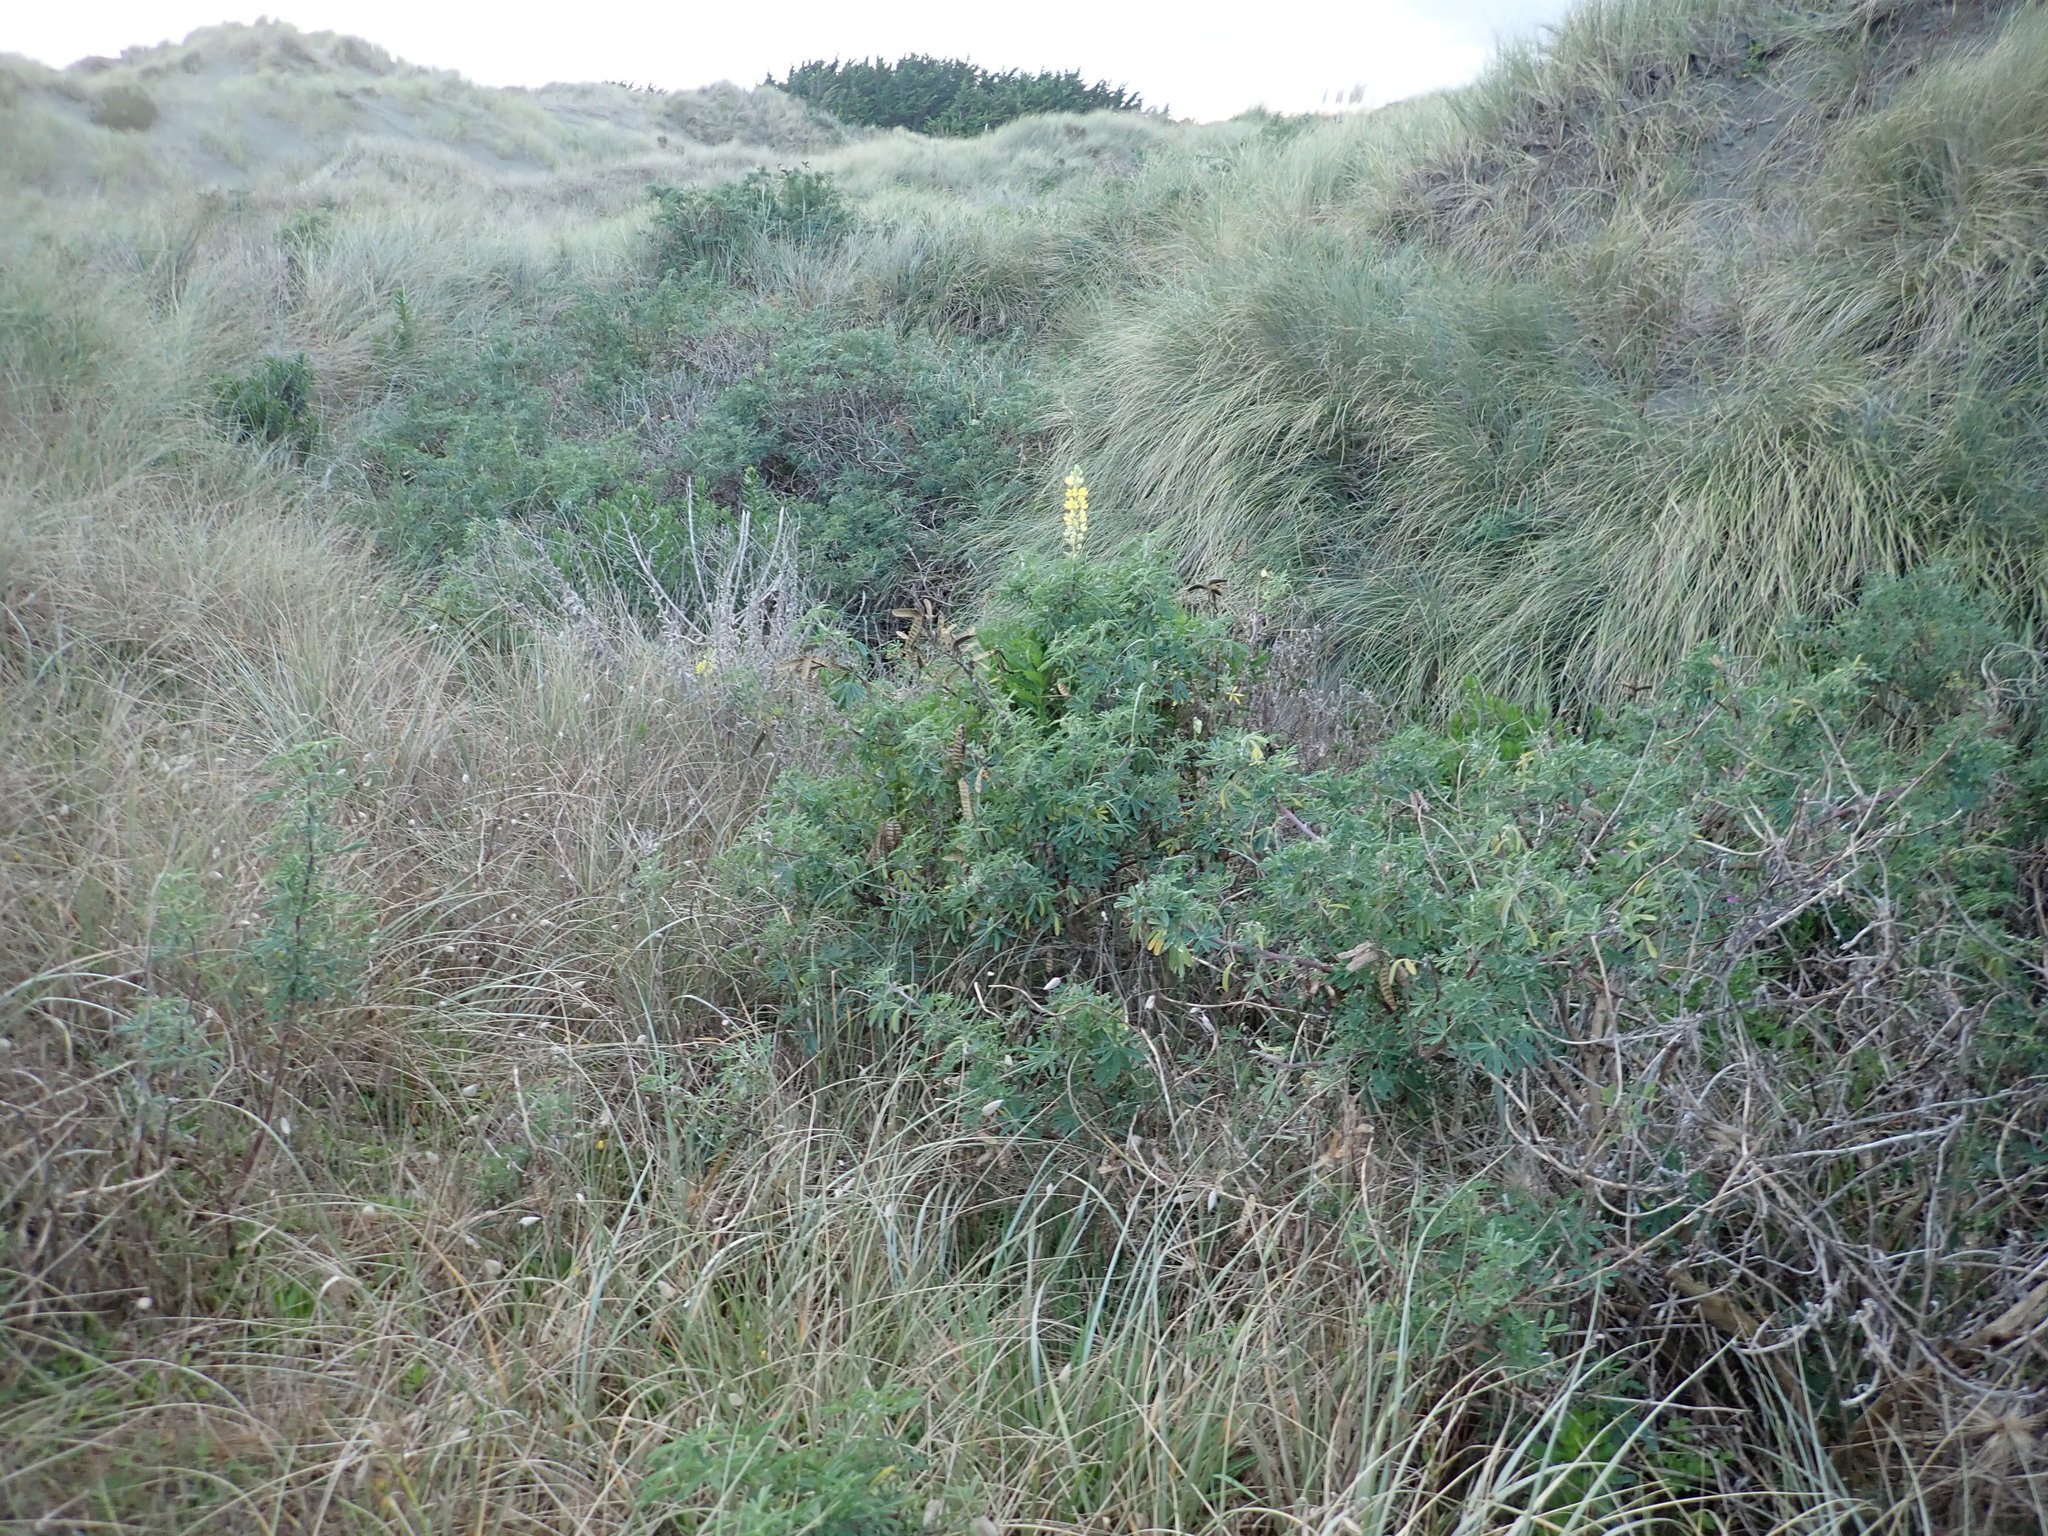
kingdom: Plantae
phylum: Tracheophyta
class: Magnoliopsida
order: Fabales
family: Fabaceae
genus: Lupinus
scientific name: Lupinus arboreus
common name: Yellow bush lupine
